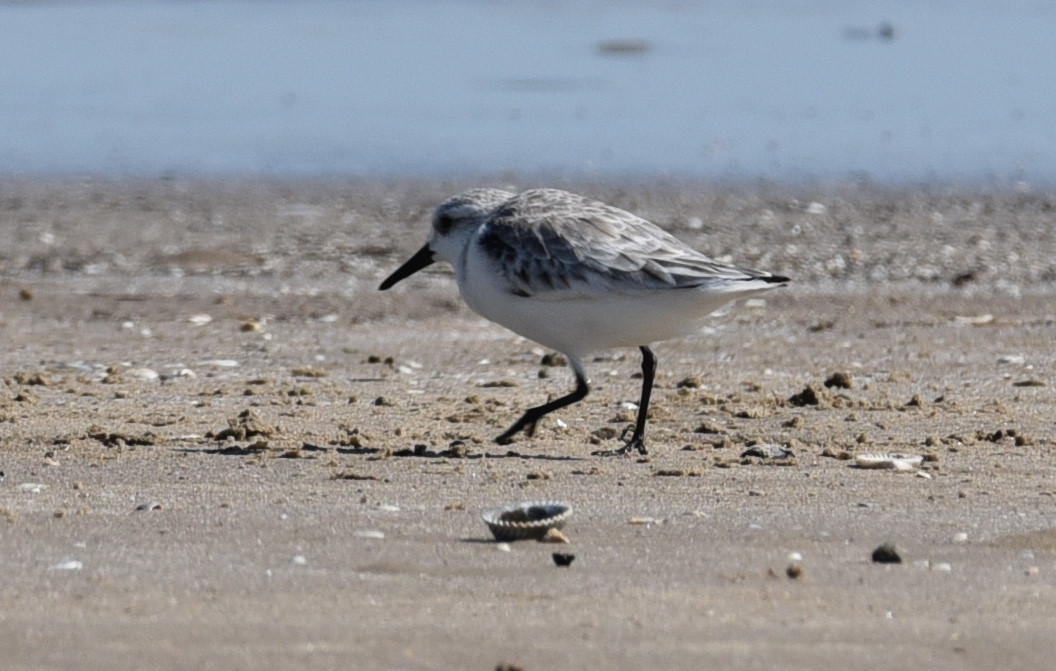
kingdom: Animalia
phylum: Chordata
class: Aves
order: Charadriiformes
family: Scolopacidae
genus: Calidris
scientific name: Calidris alba
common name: Sanderling
